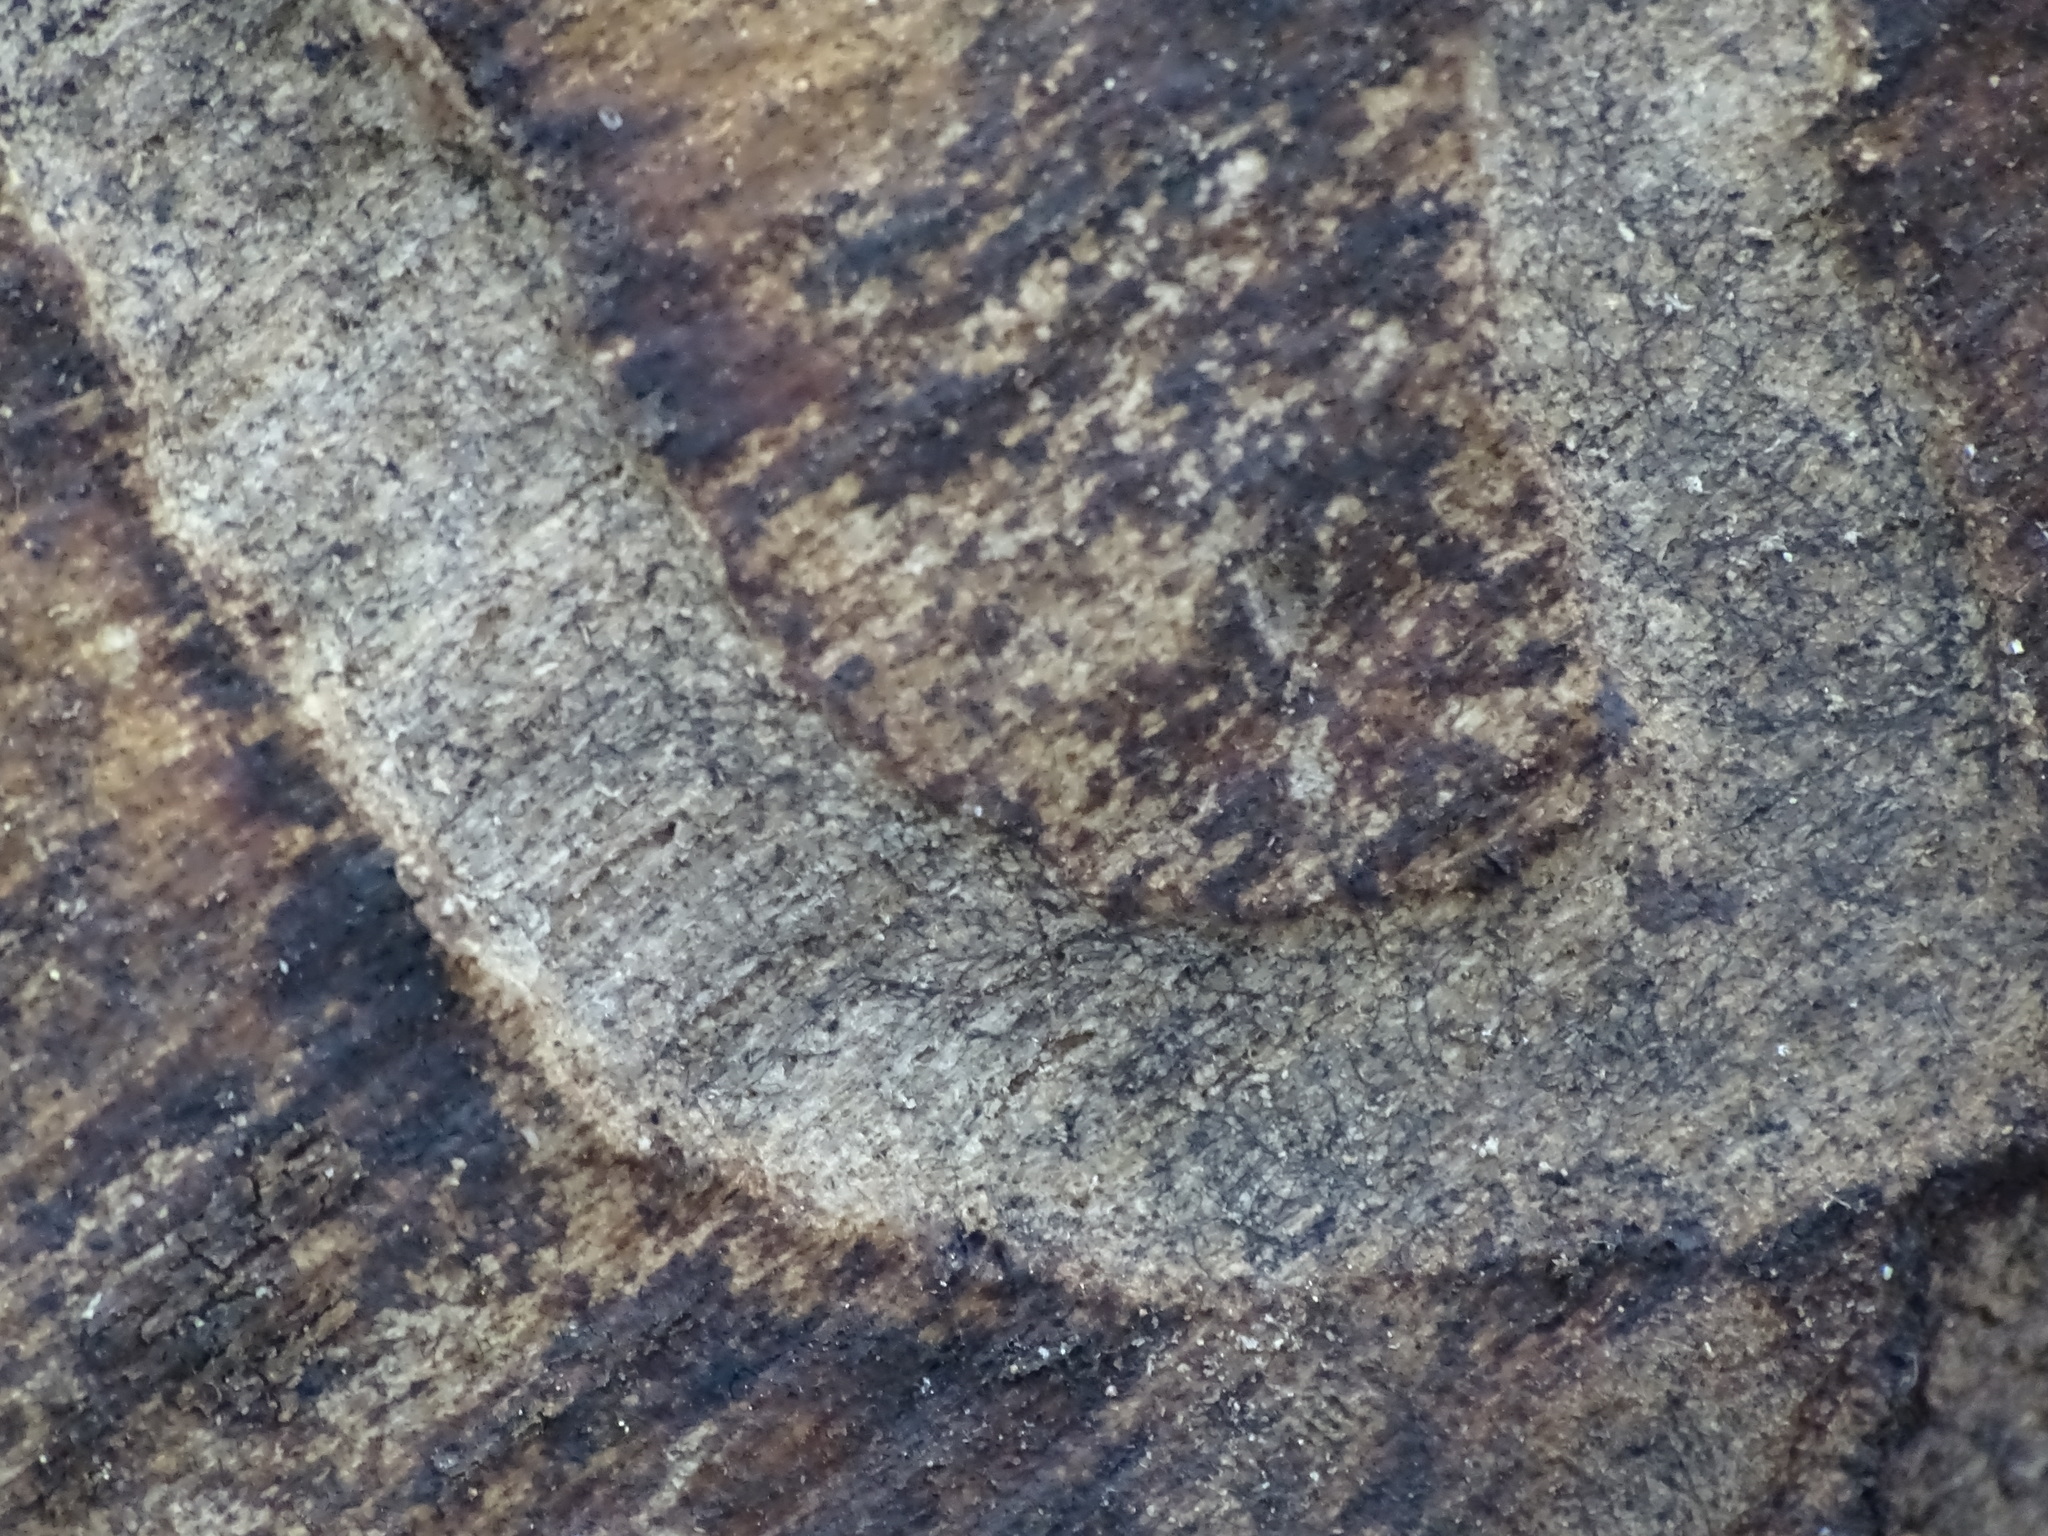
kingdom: Animalia
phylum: Arthropoda
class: Insecta
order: Coleoptera
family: Buprestidae
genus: Agrilus
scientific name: Agrilus planipennis
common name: Emerald ash borer
